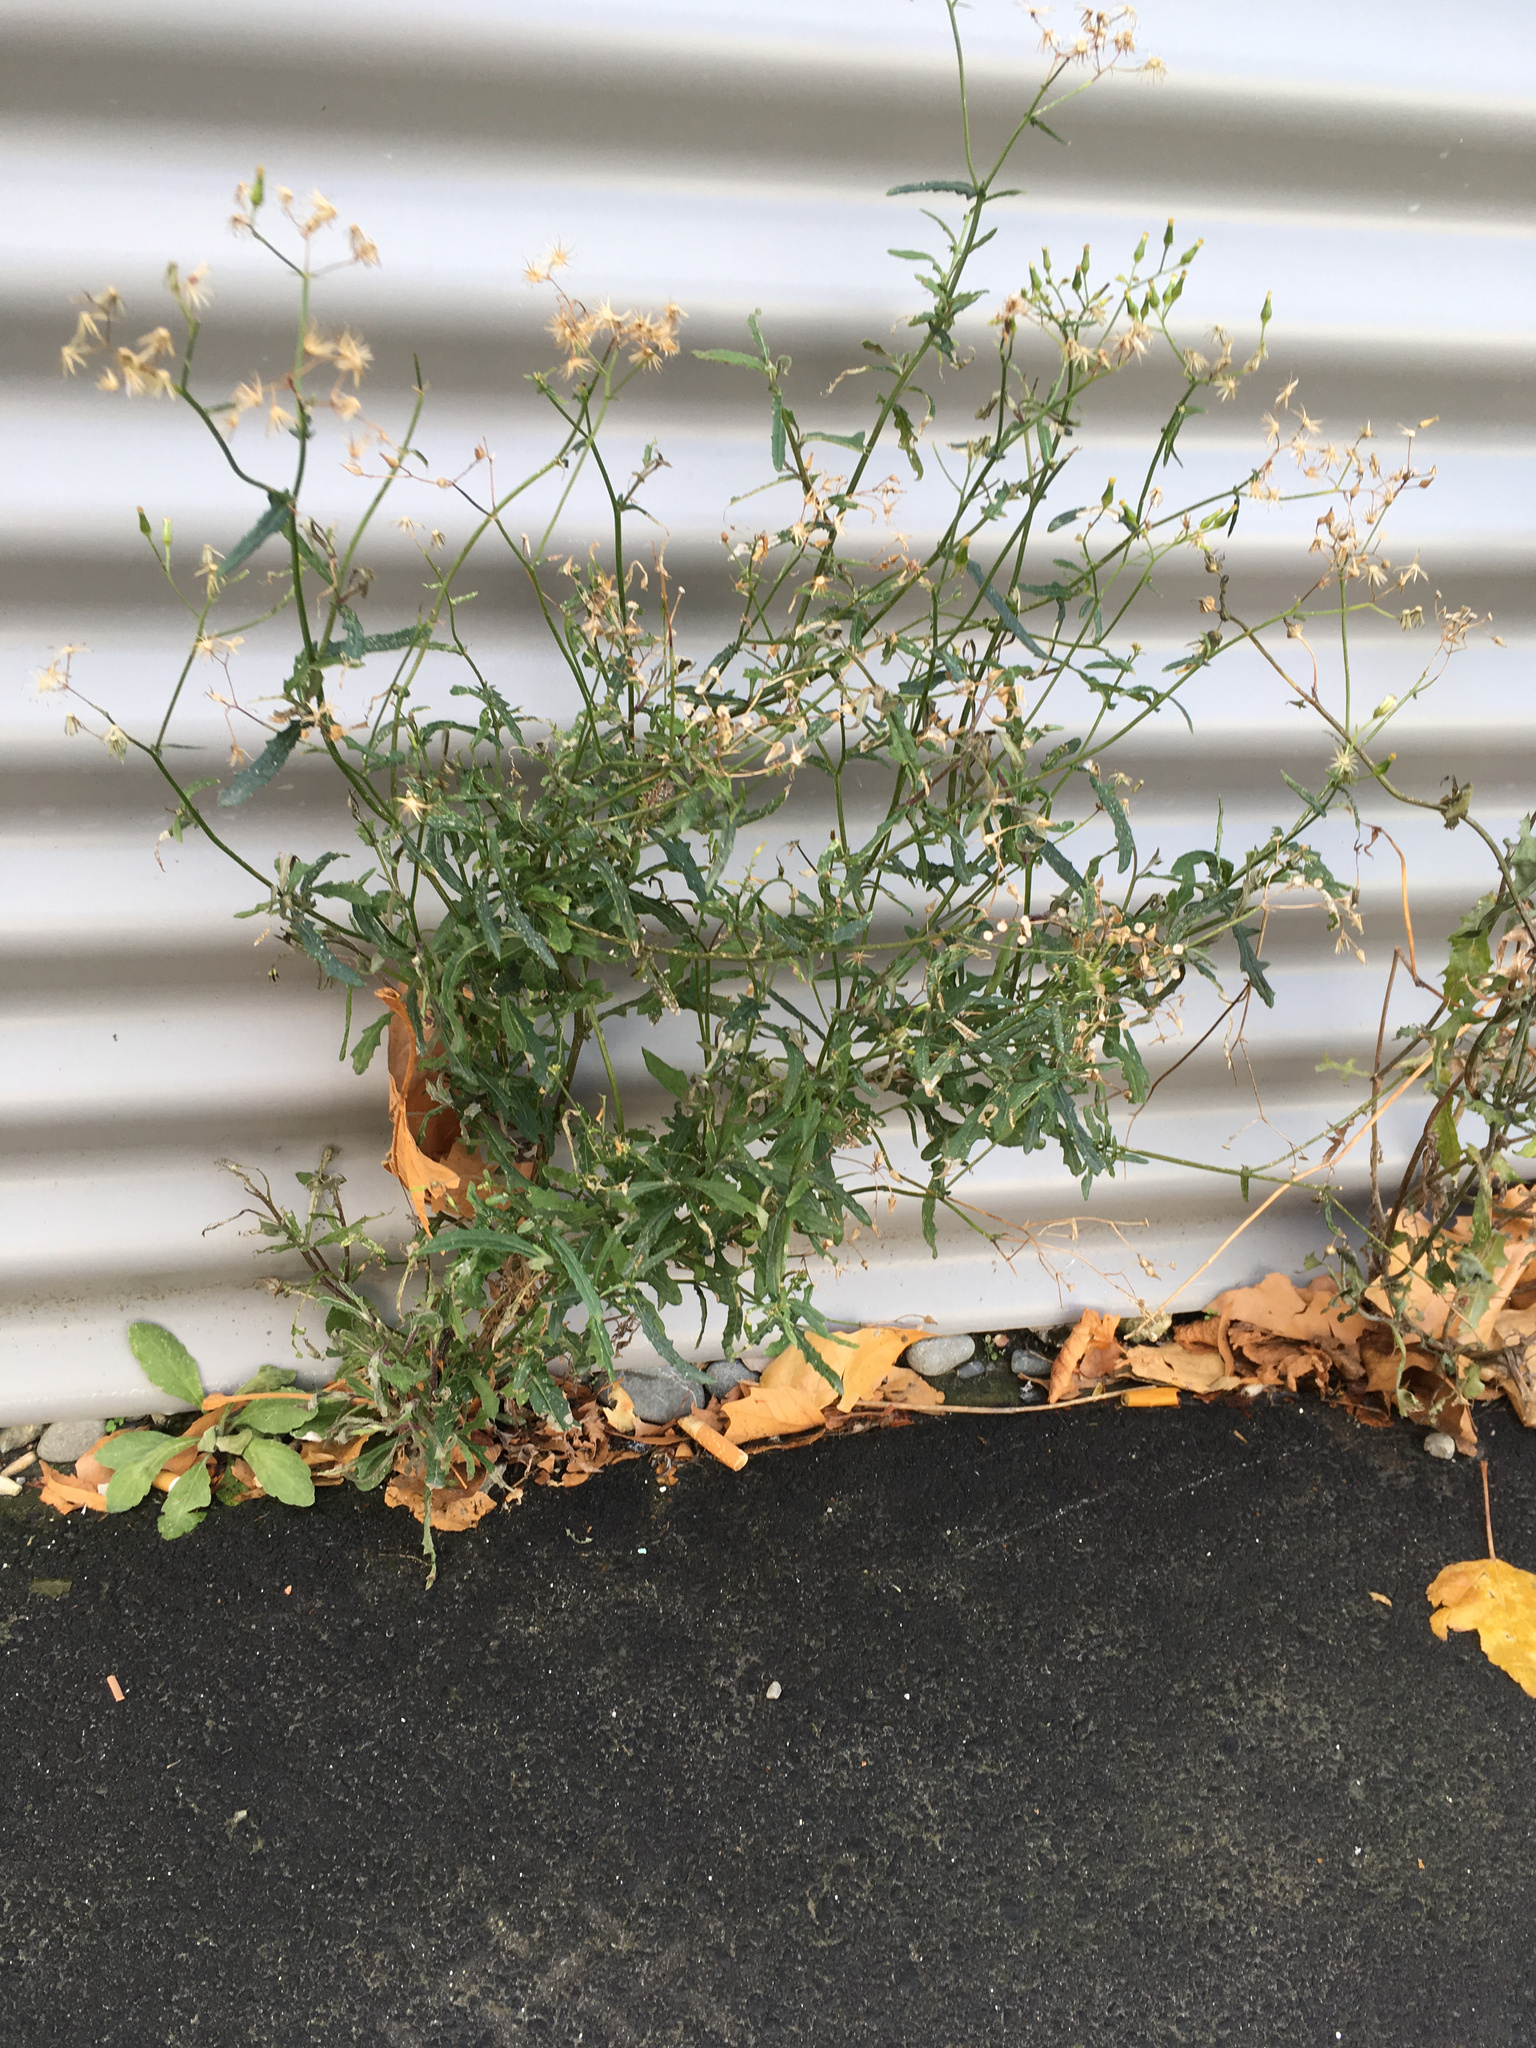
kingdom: Plantae
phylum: Tracheophyta
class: Magnoliopsida
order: Asterales
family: Asteraceae
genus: Senecio
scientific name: Senecio hispidulus
